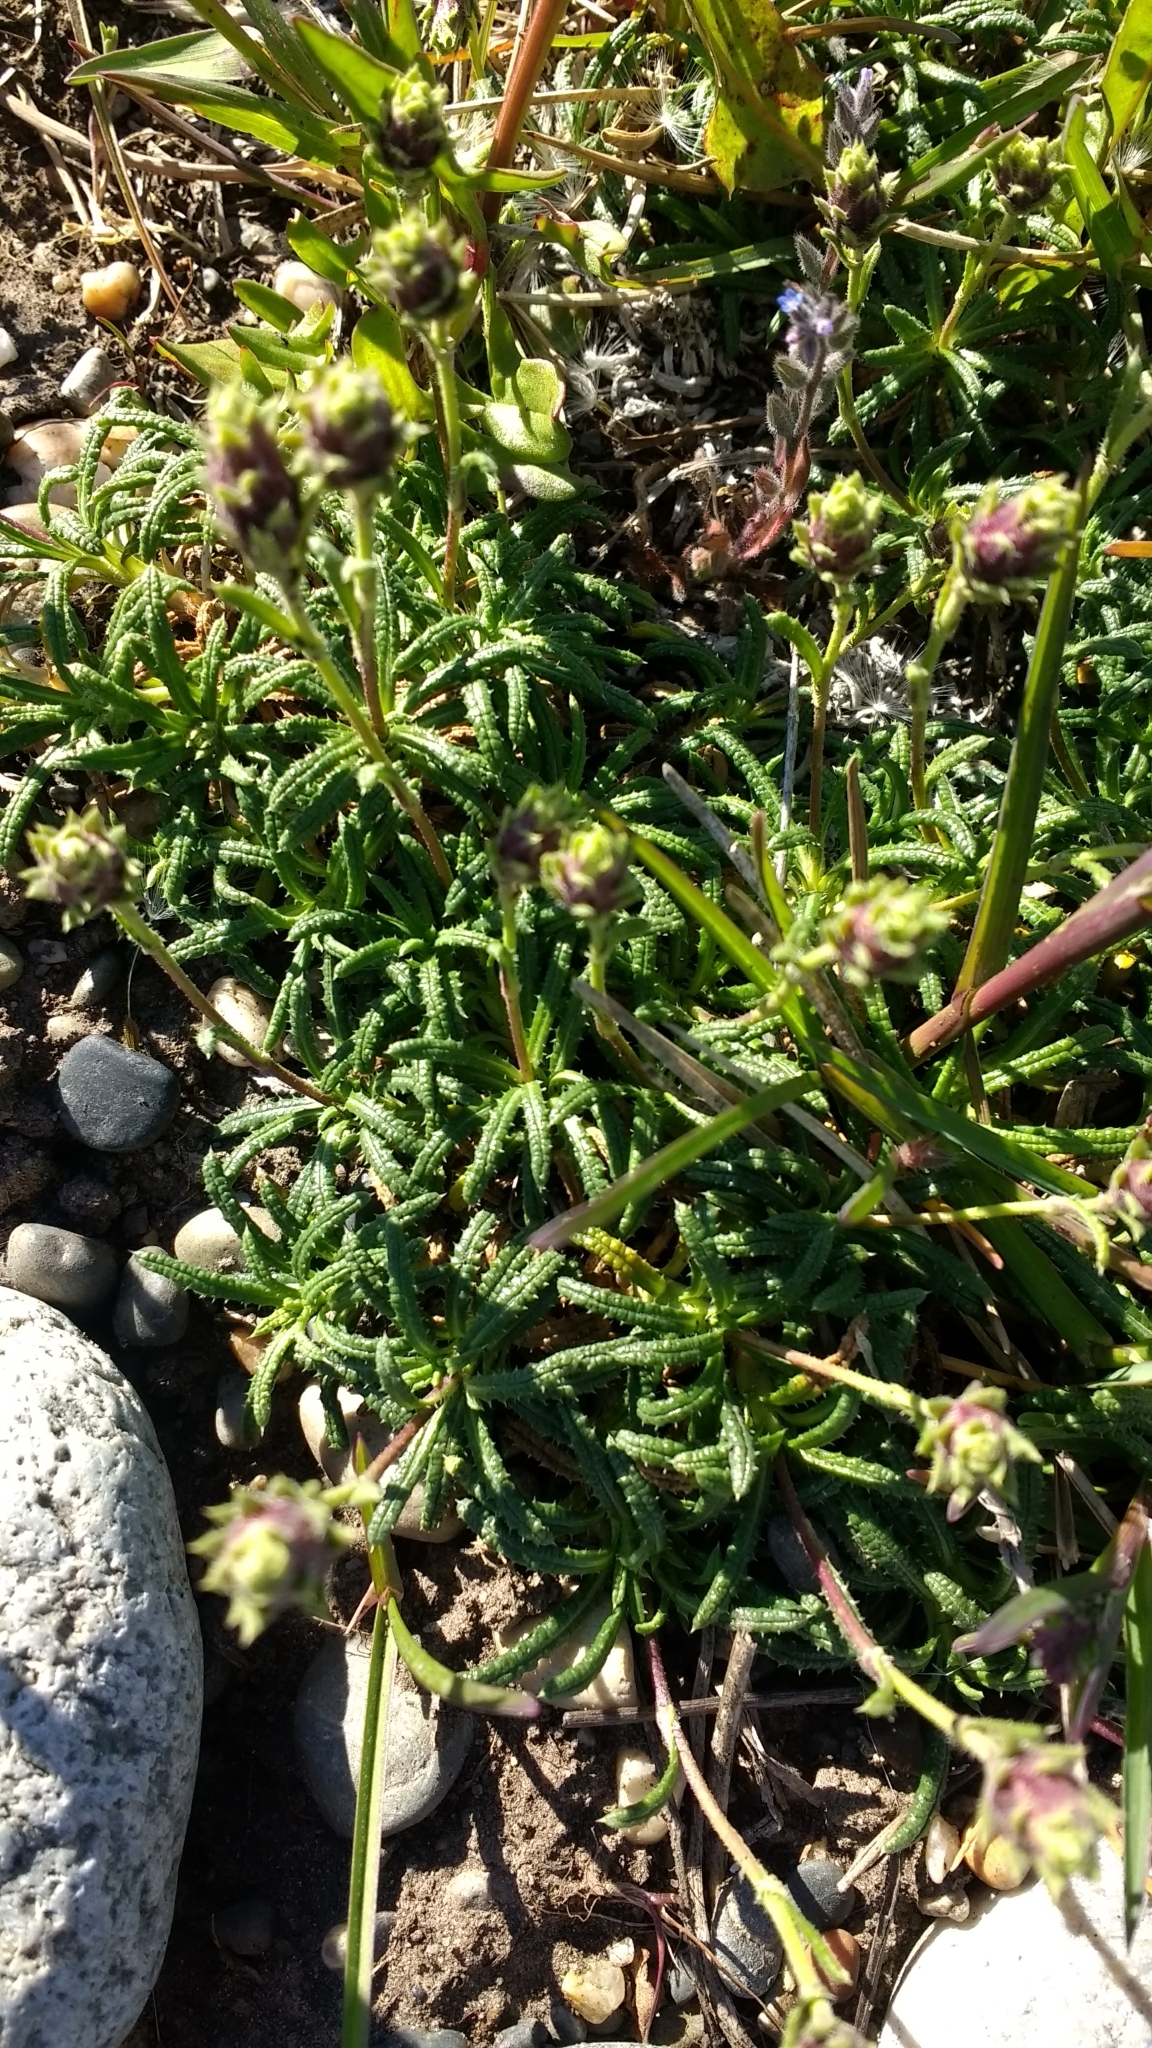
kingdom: Plantae
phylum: Tracheophyta
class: Magnoliopsida
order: Asterales
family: Asteraceae
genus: Perezia
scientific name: Perezia recurvata
